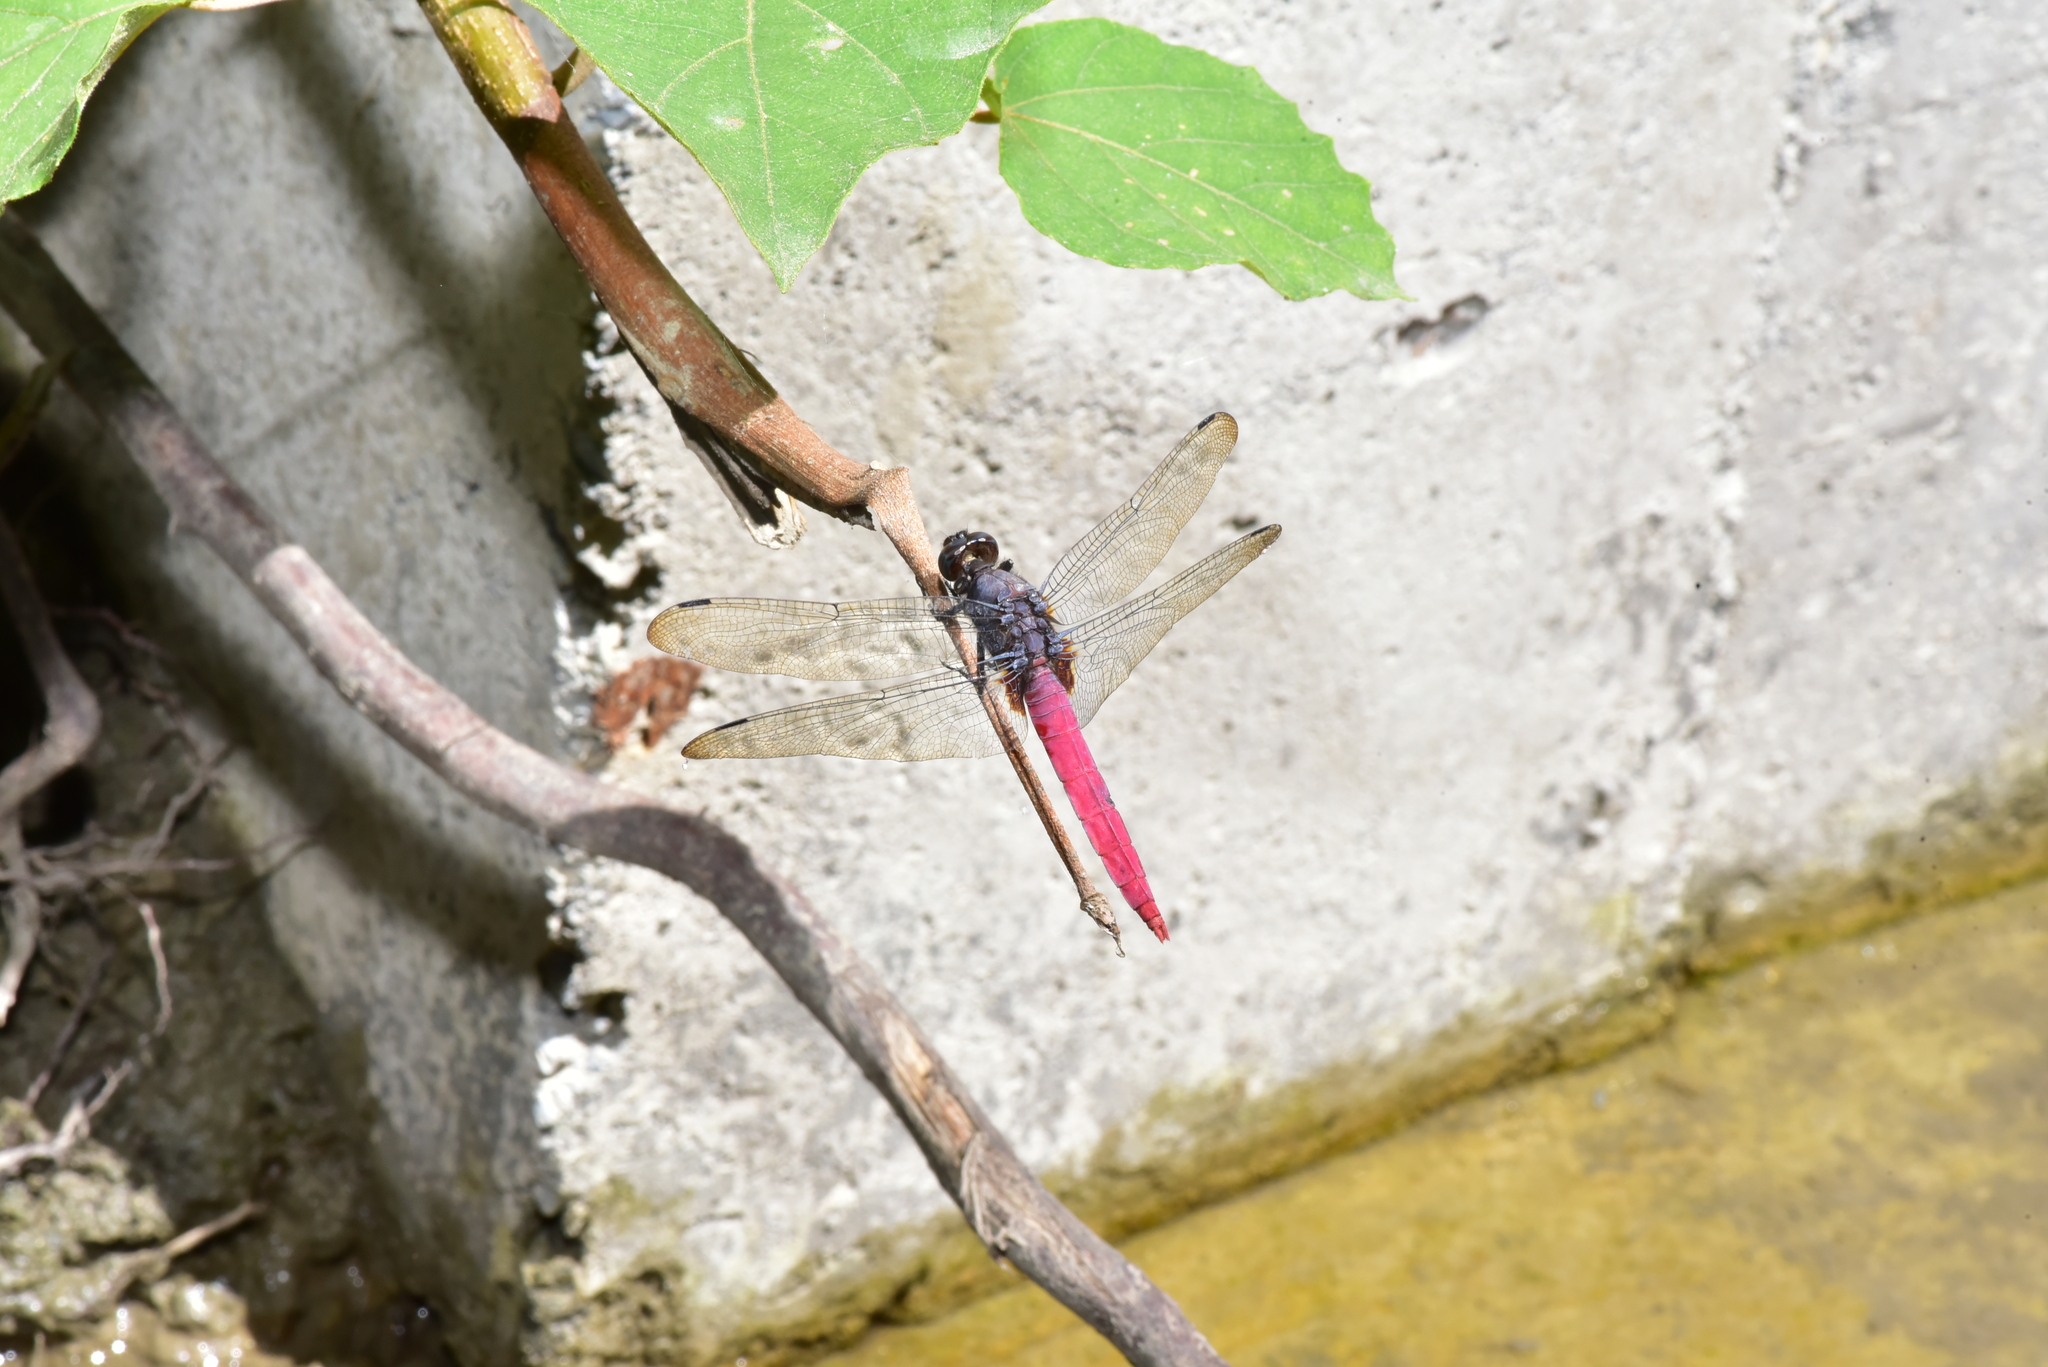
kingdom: Animalia
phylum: Arthropoda
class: Insecta
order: Odonata
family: Libellulidae
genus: Orthetrum
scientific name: Orthetrum pruinosum
